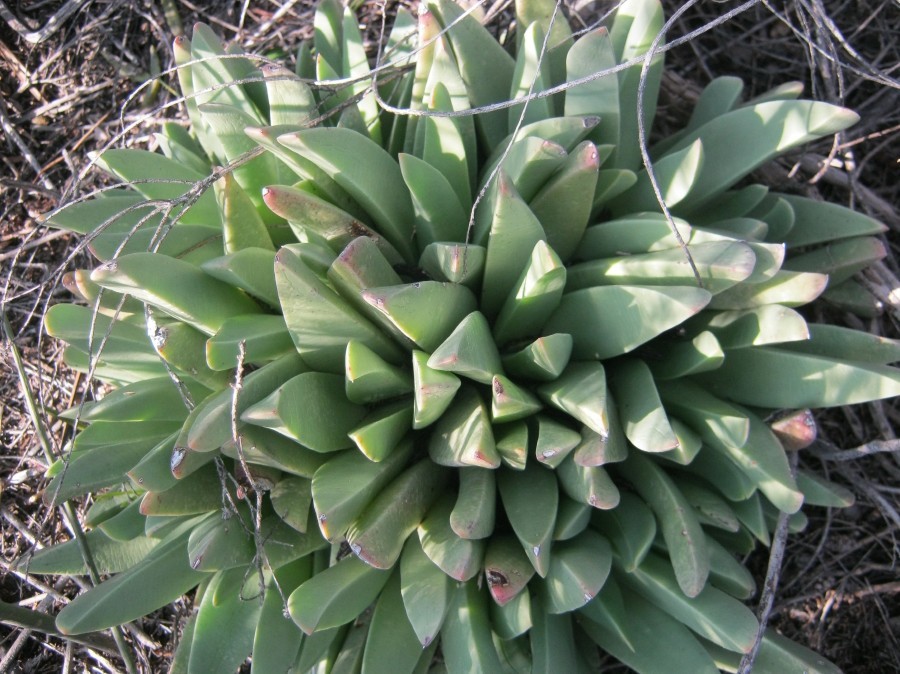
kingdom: Plantae
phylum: Tracheophyta
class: Magnoliopsida
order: Caryophyllales
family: Aizoaceae
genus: Machairophyllum
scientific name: Machairophyllum albidum
